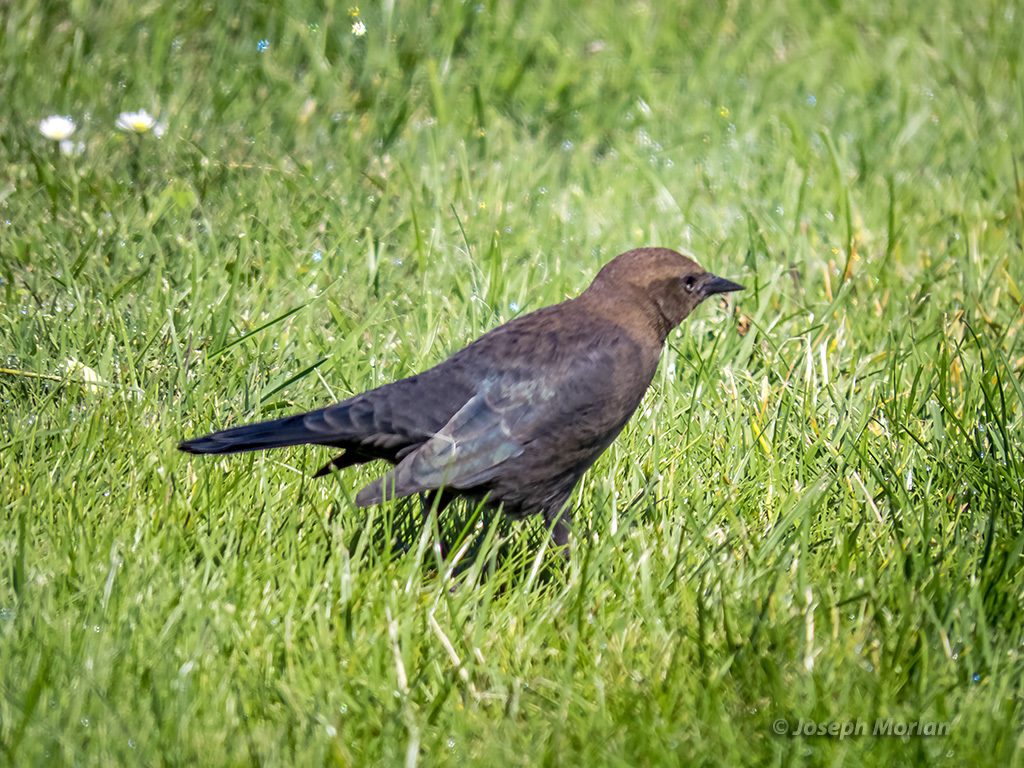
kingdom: Animalia
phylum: Chordata
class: Aves
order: Passeriformes
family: Icteridae
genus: Euphagus
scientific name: Euphagus cyanocephalus
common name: Brewer's blackbird
